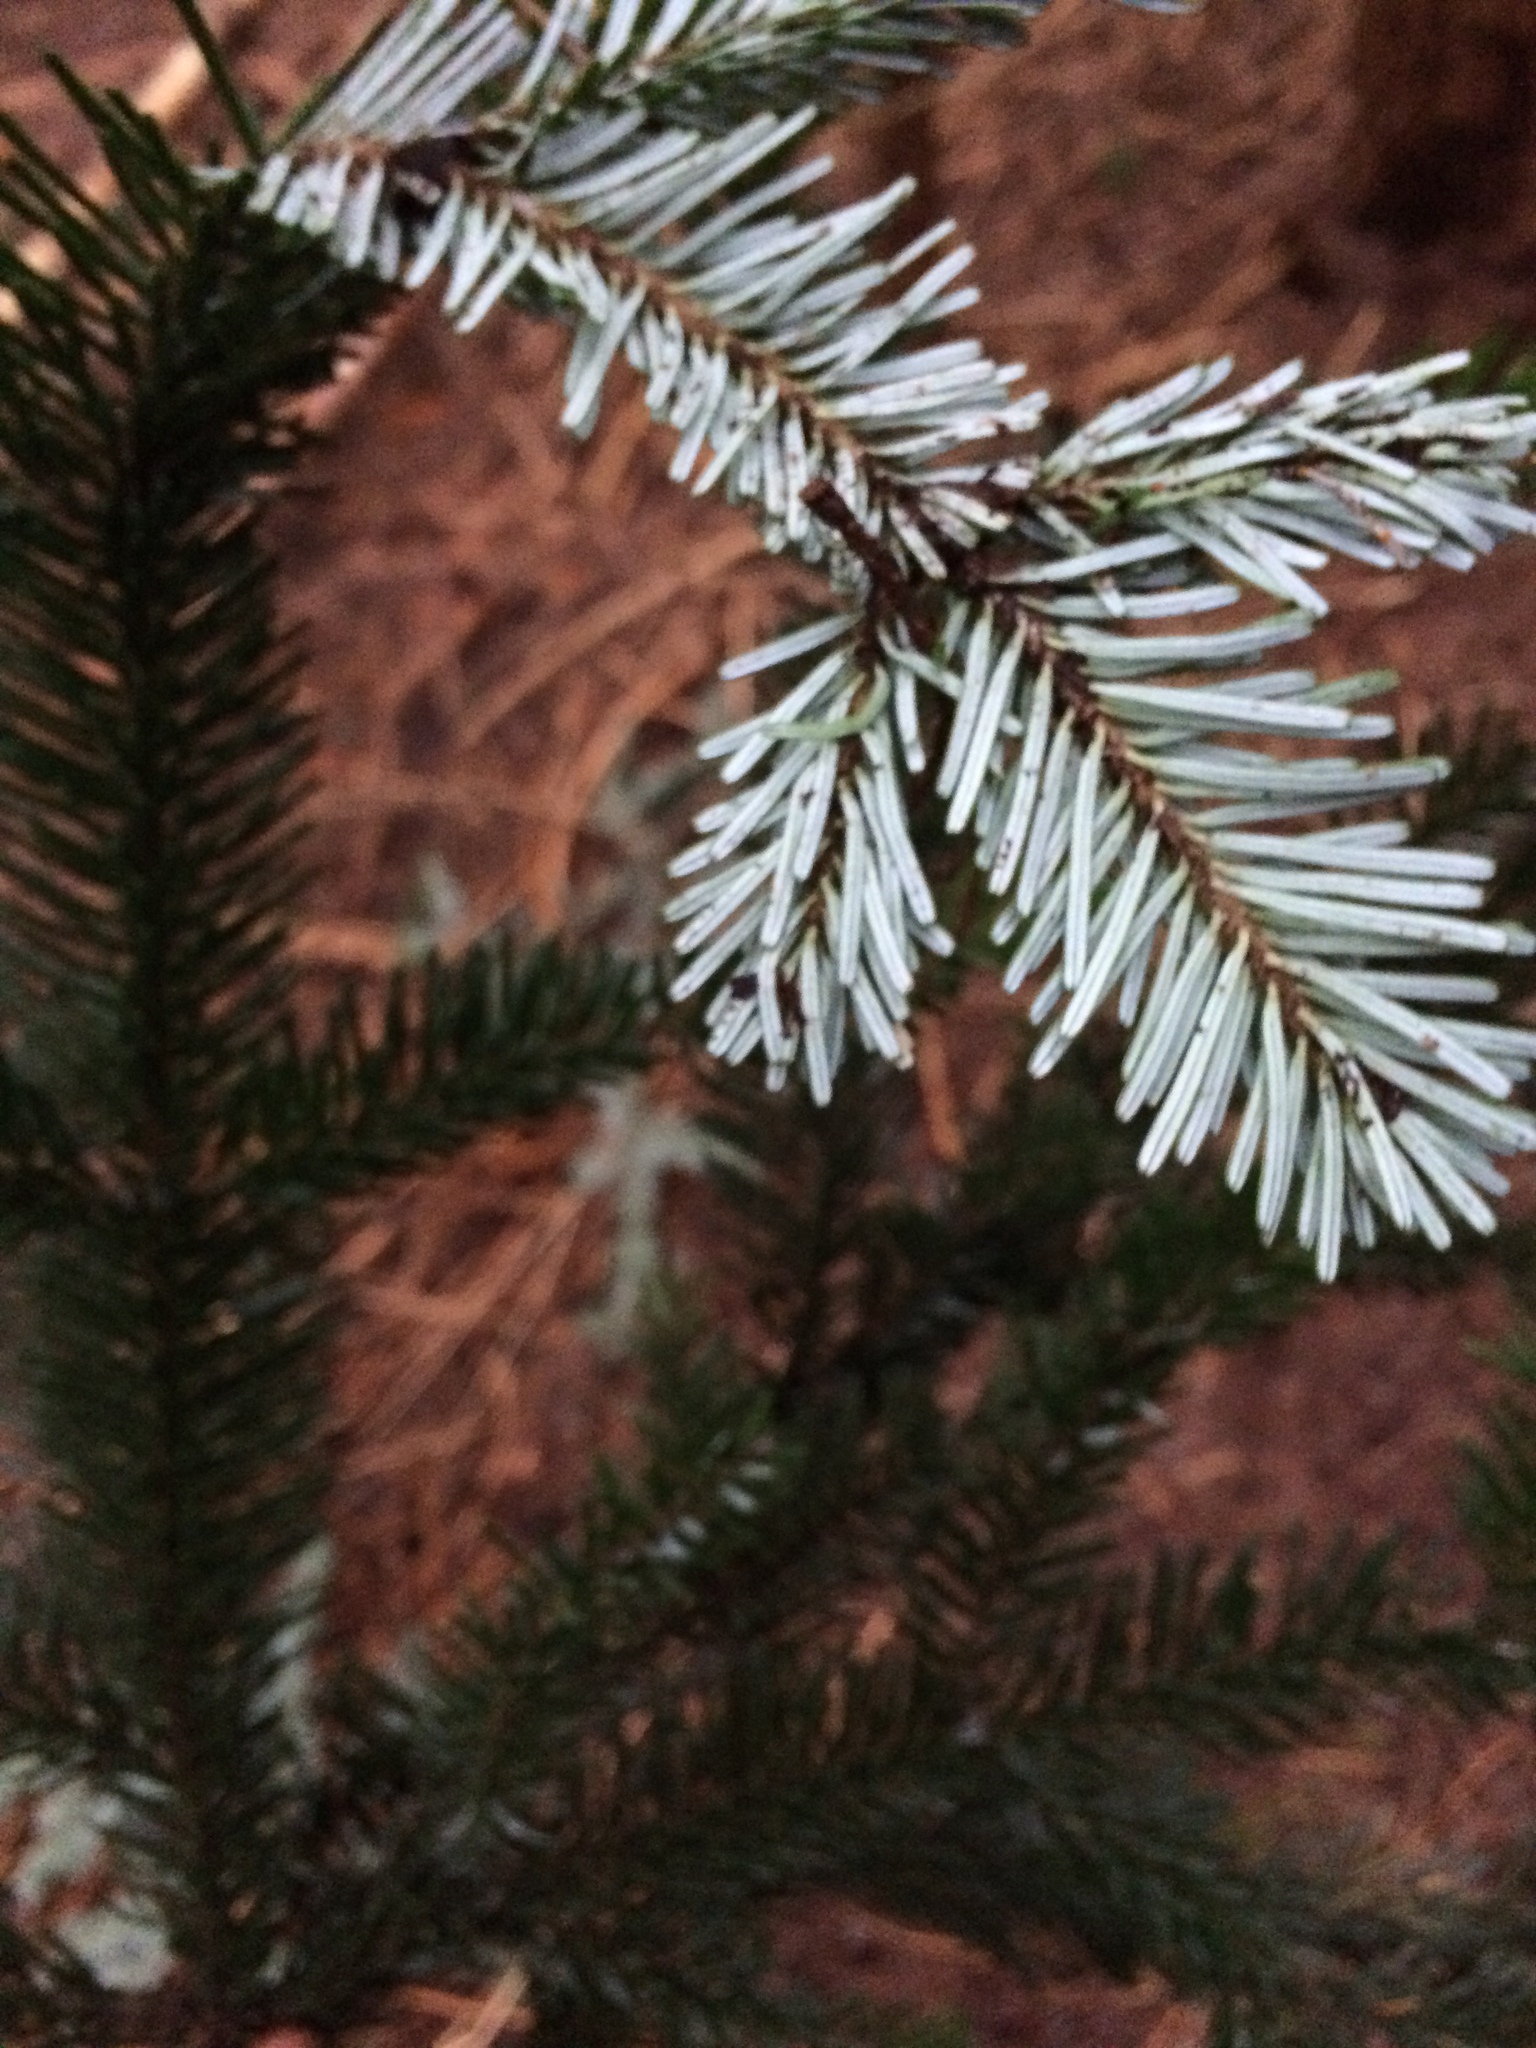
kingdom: Plantae
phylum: Tracheophyta
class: Pinopsida
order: Pinales
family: Pinaceae
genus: Abies
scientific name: Abies amabilis
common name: Pacific silver fir
